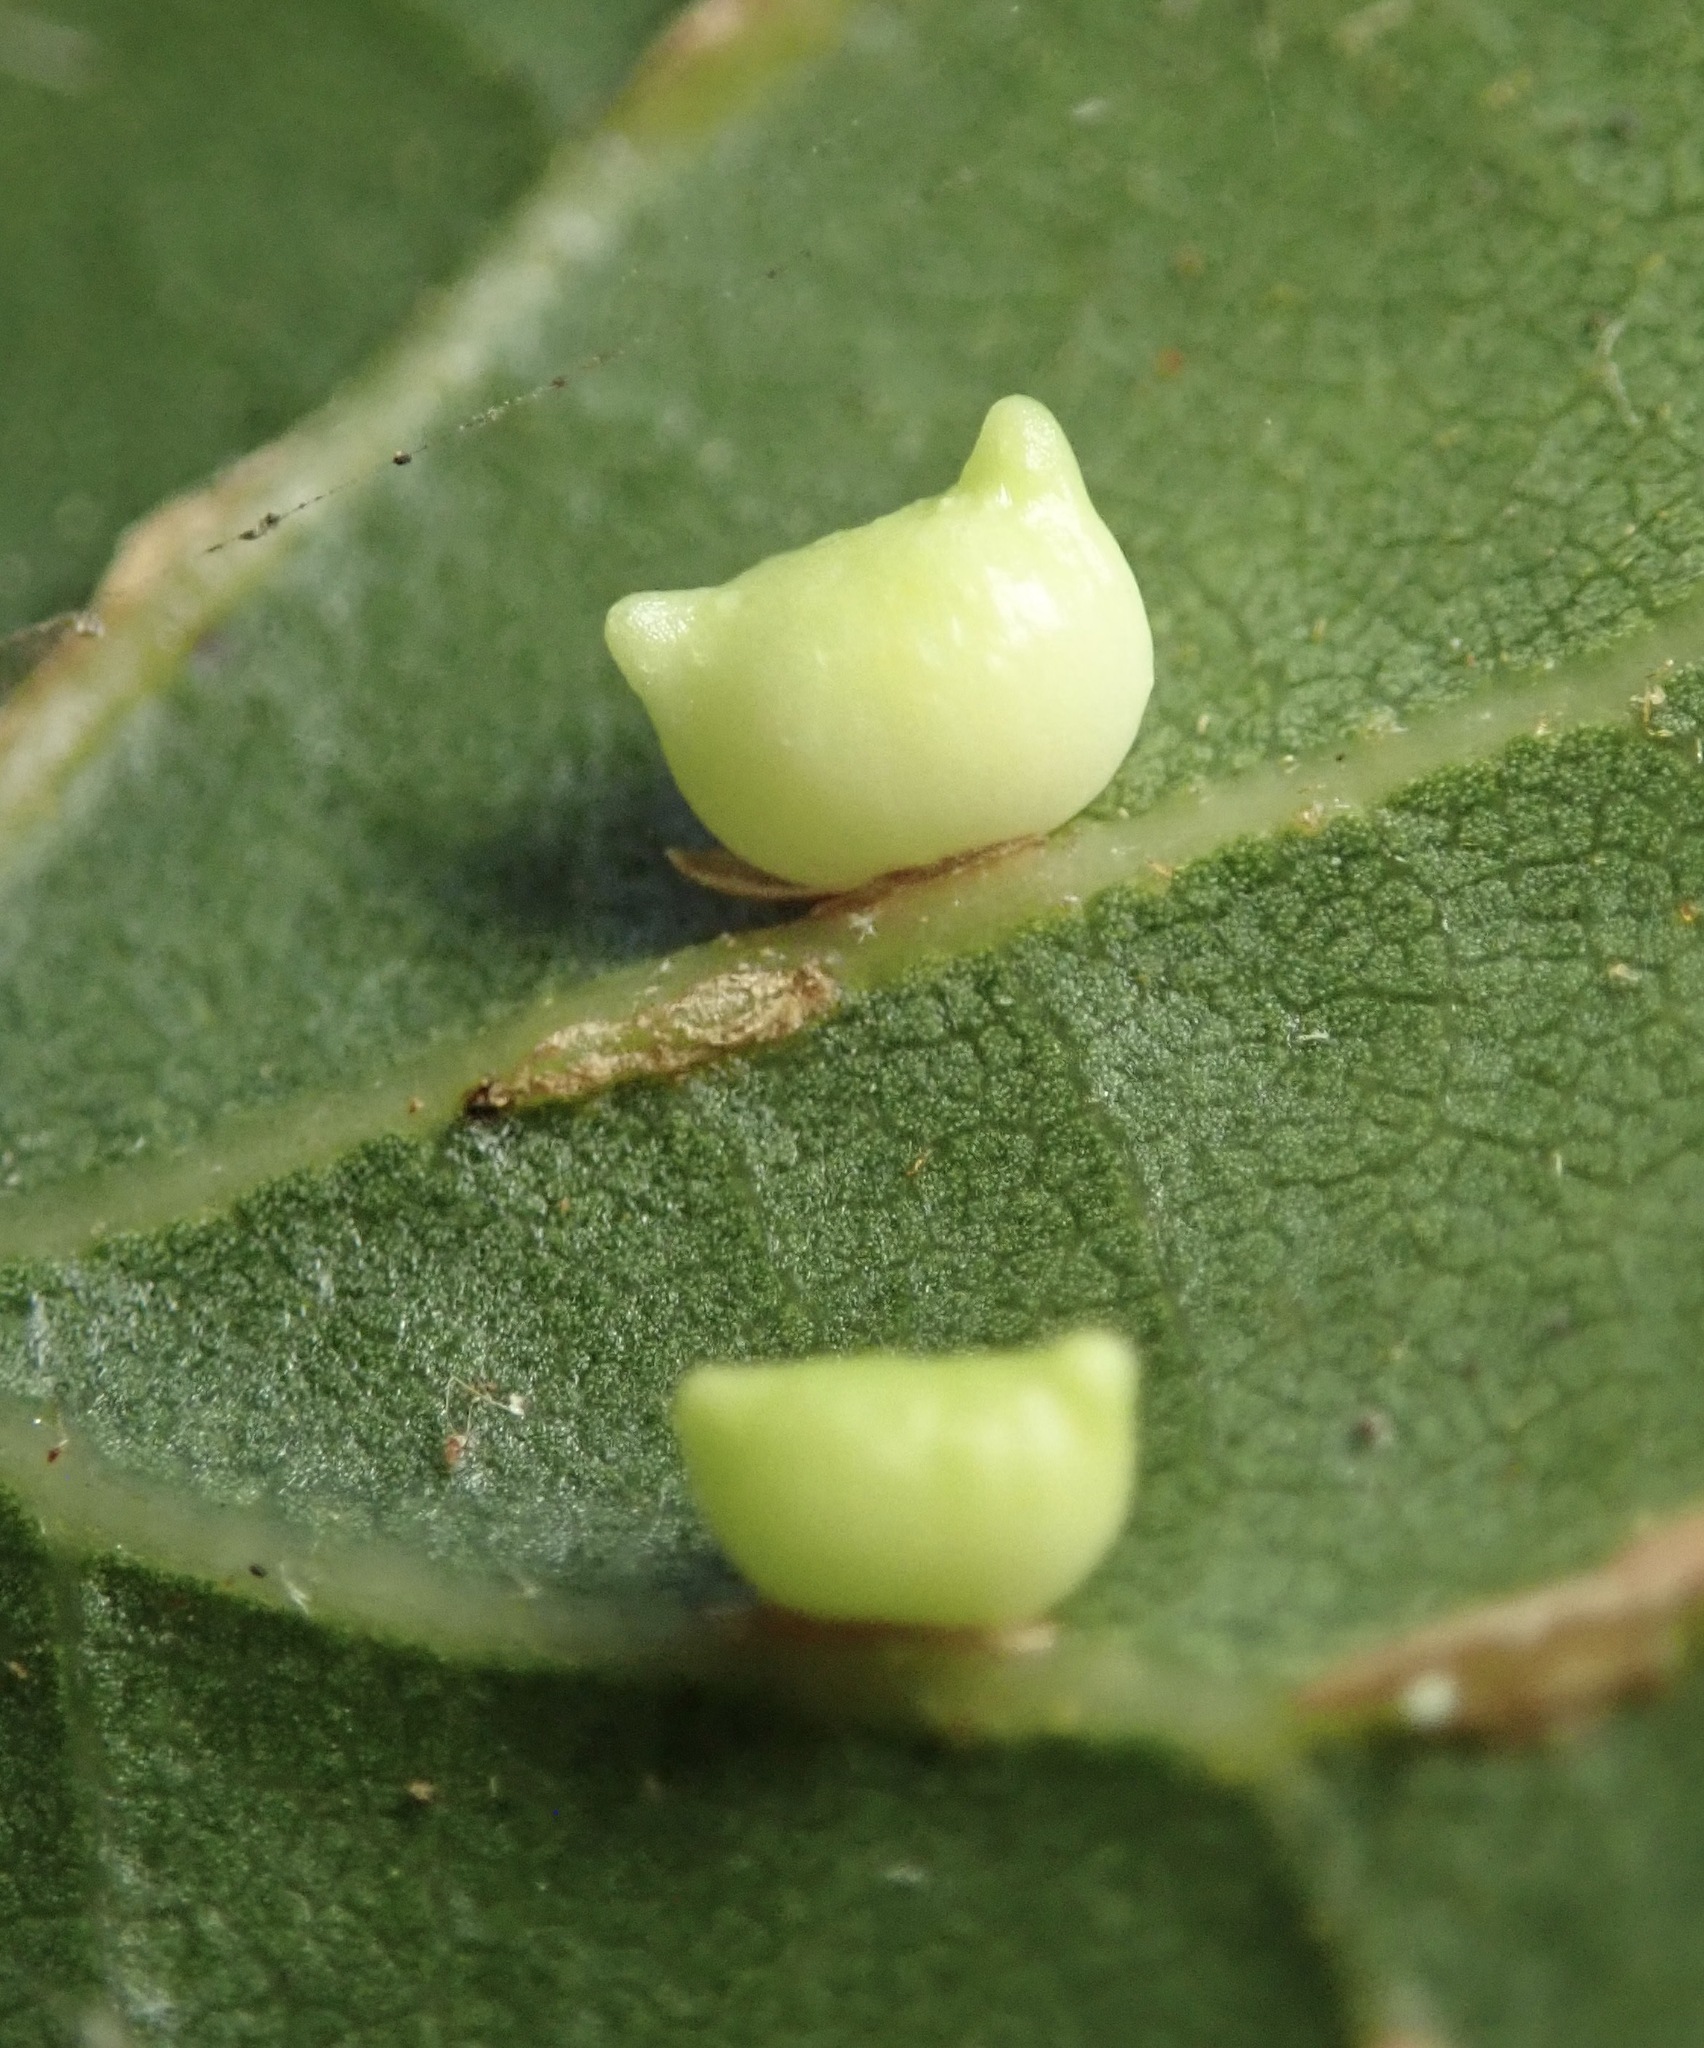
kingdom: Animalia
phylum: Arthropoda
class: Insecta
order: Hymenoptera
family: Cynipidae
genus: Dryocosmus
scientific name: Dryocosmus
